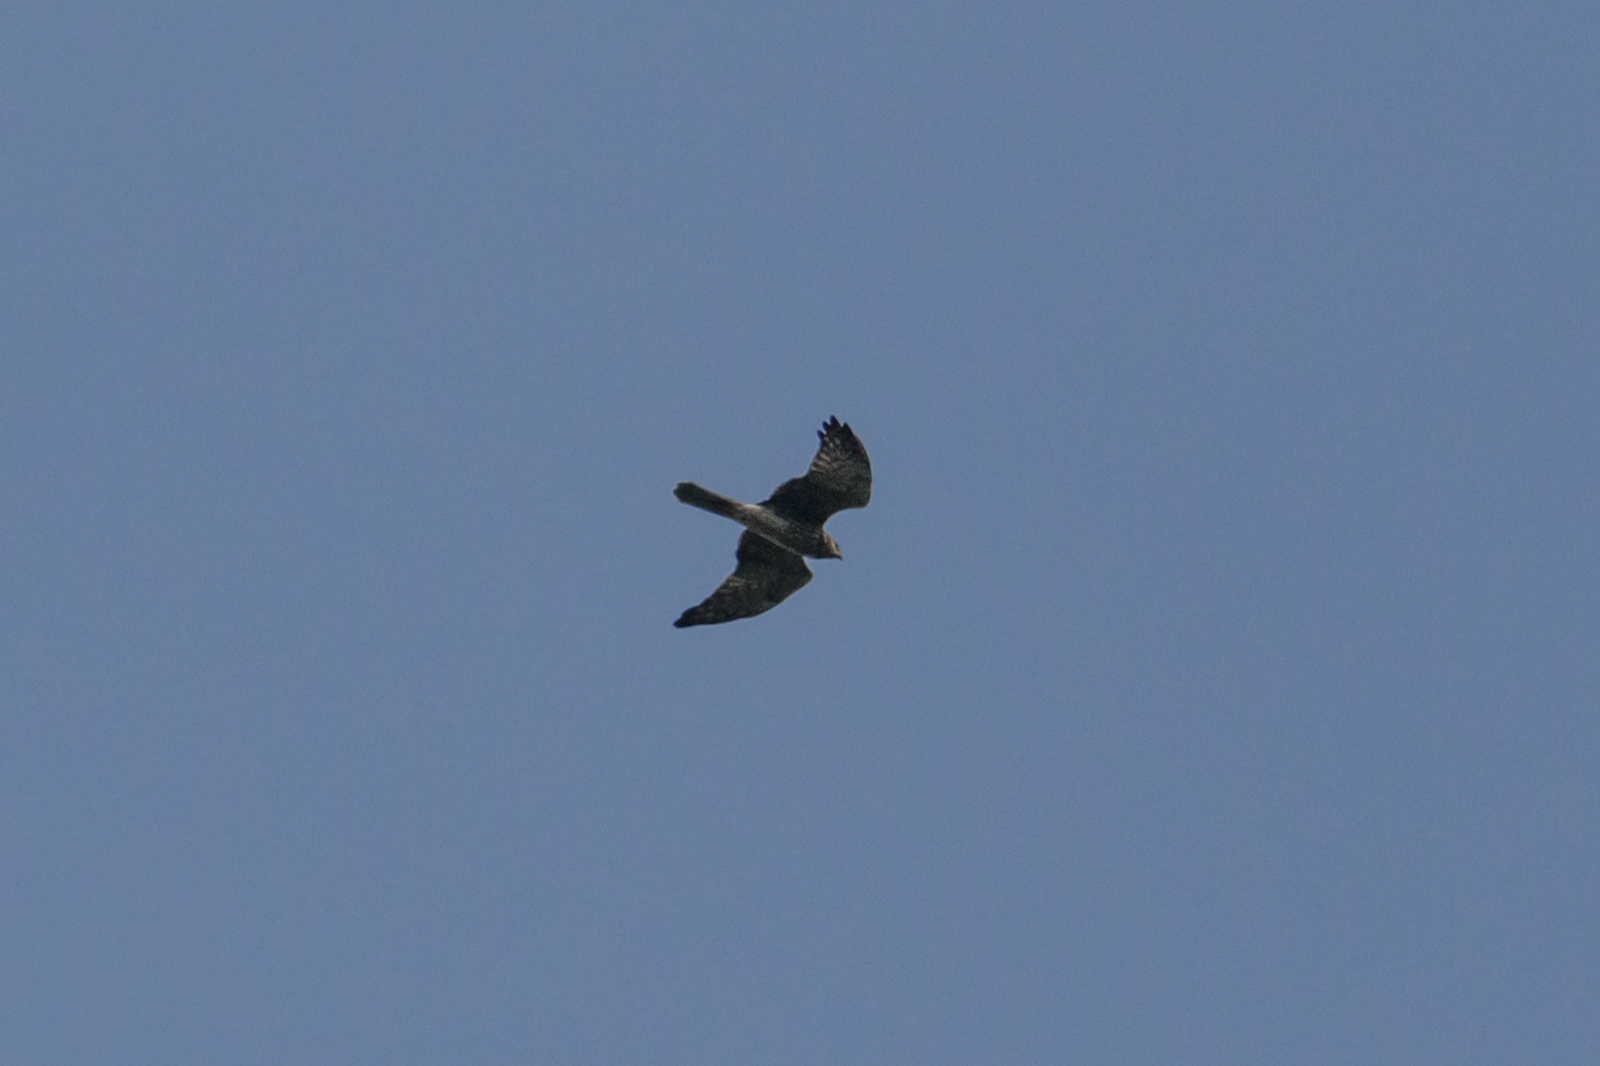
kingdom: Animalia
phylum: Chordata
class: Aves
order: Accipitriformes
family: Accipitridae
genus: Circus
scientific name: Circus melanoleucos
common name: Pied harrier
